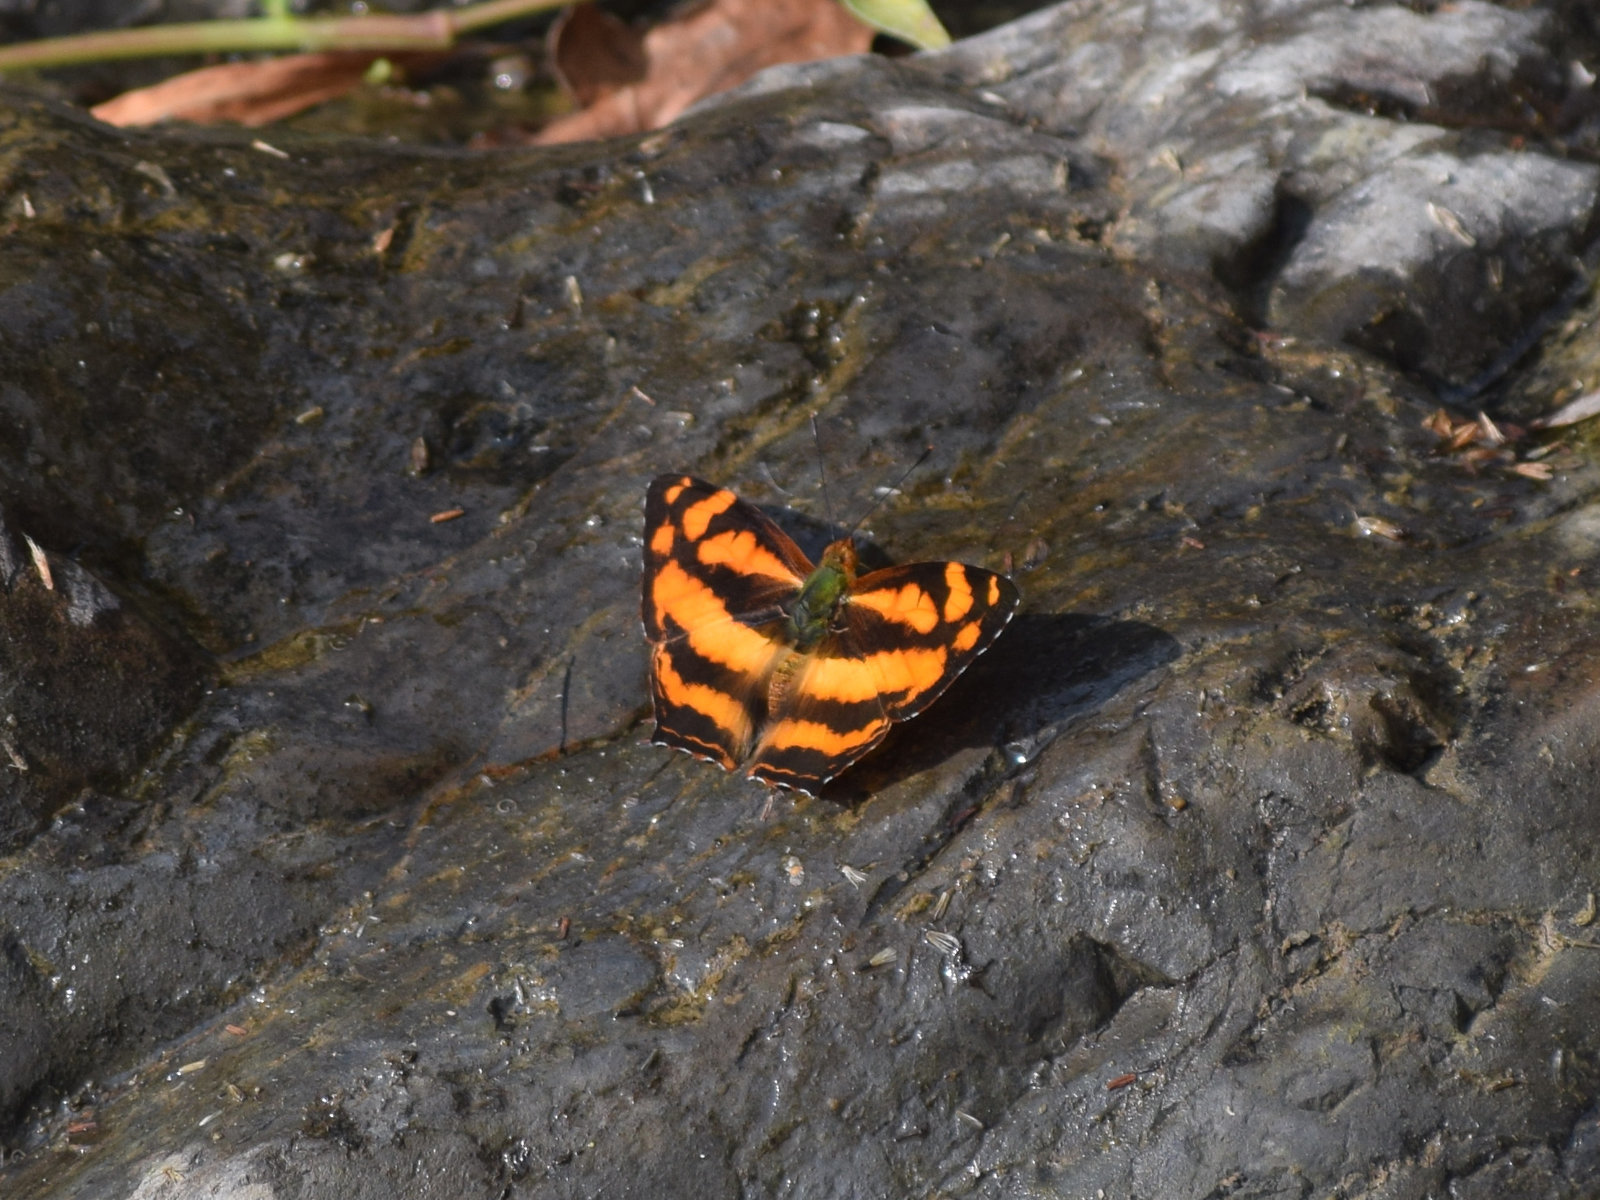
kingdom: Animalia
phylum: Arthropoda
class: Insecta
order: Lepidoptera
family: Nymphalidae
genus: Symbrenthia
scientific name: Symbrenthia hypselis
